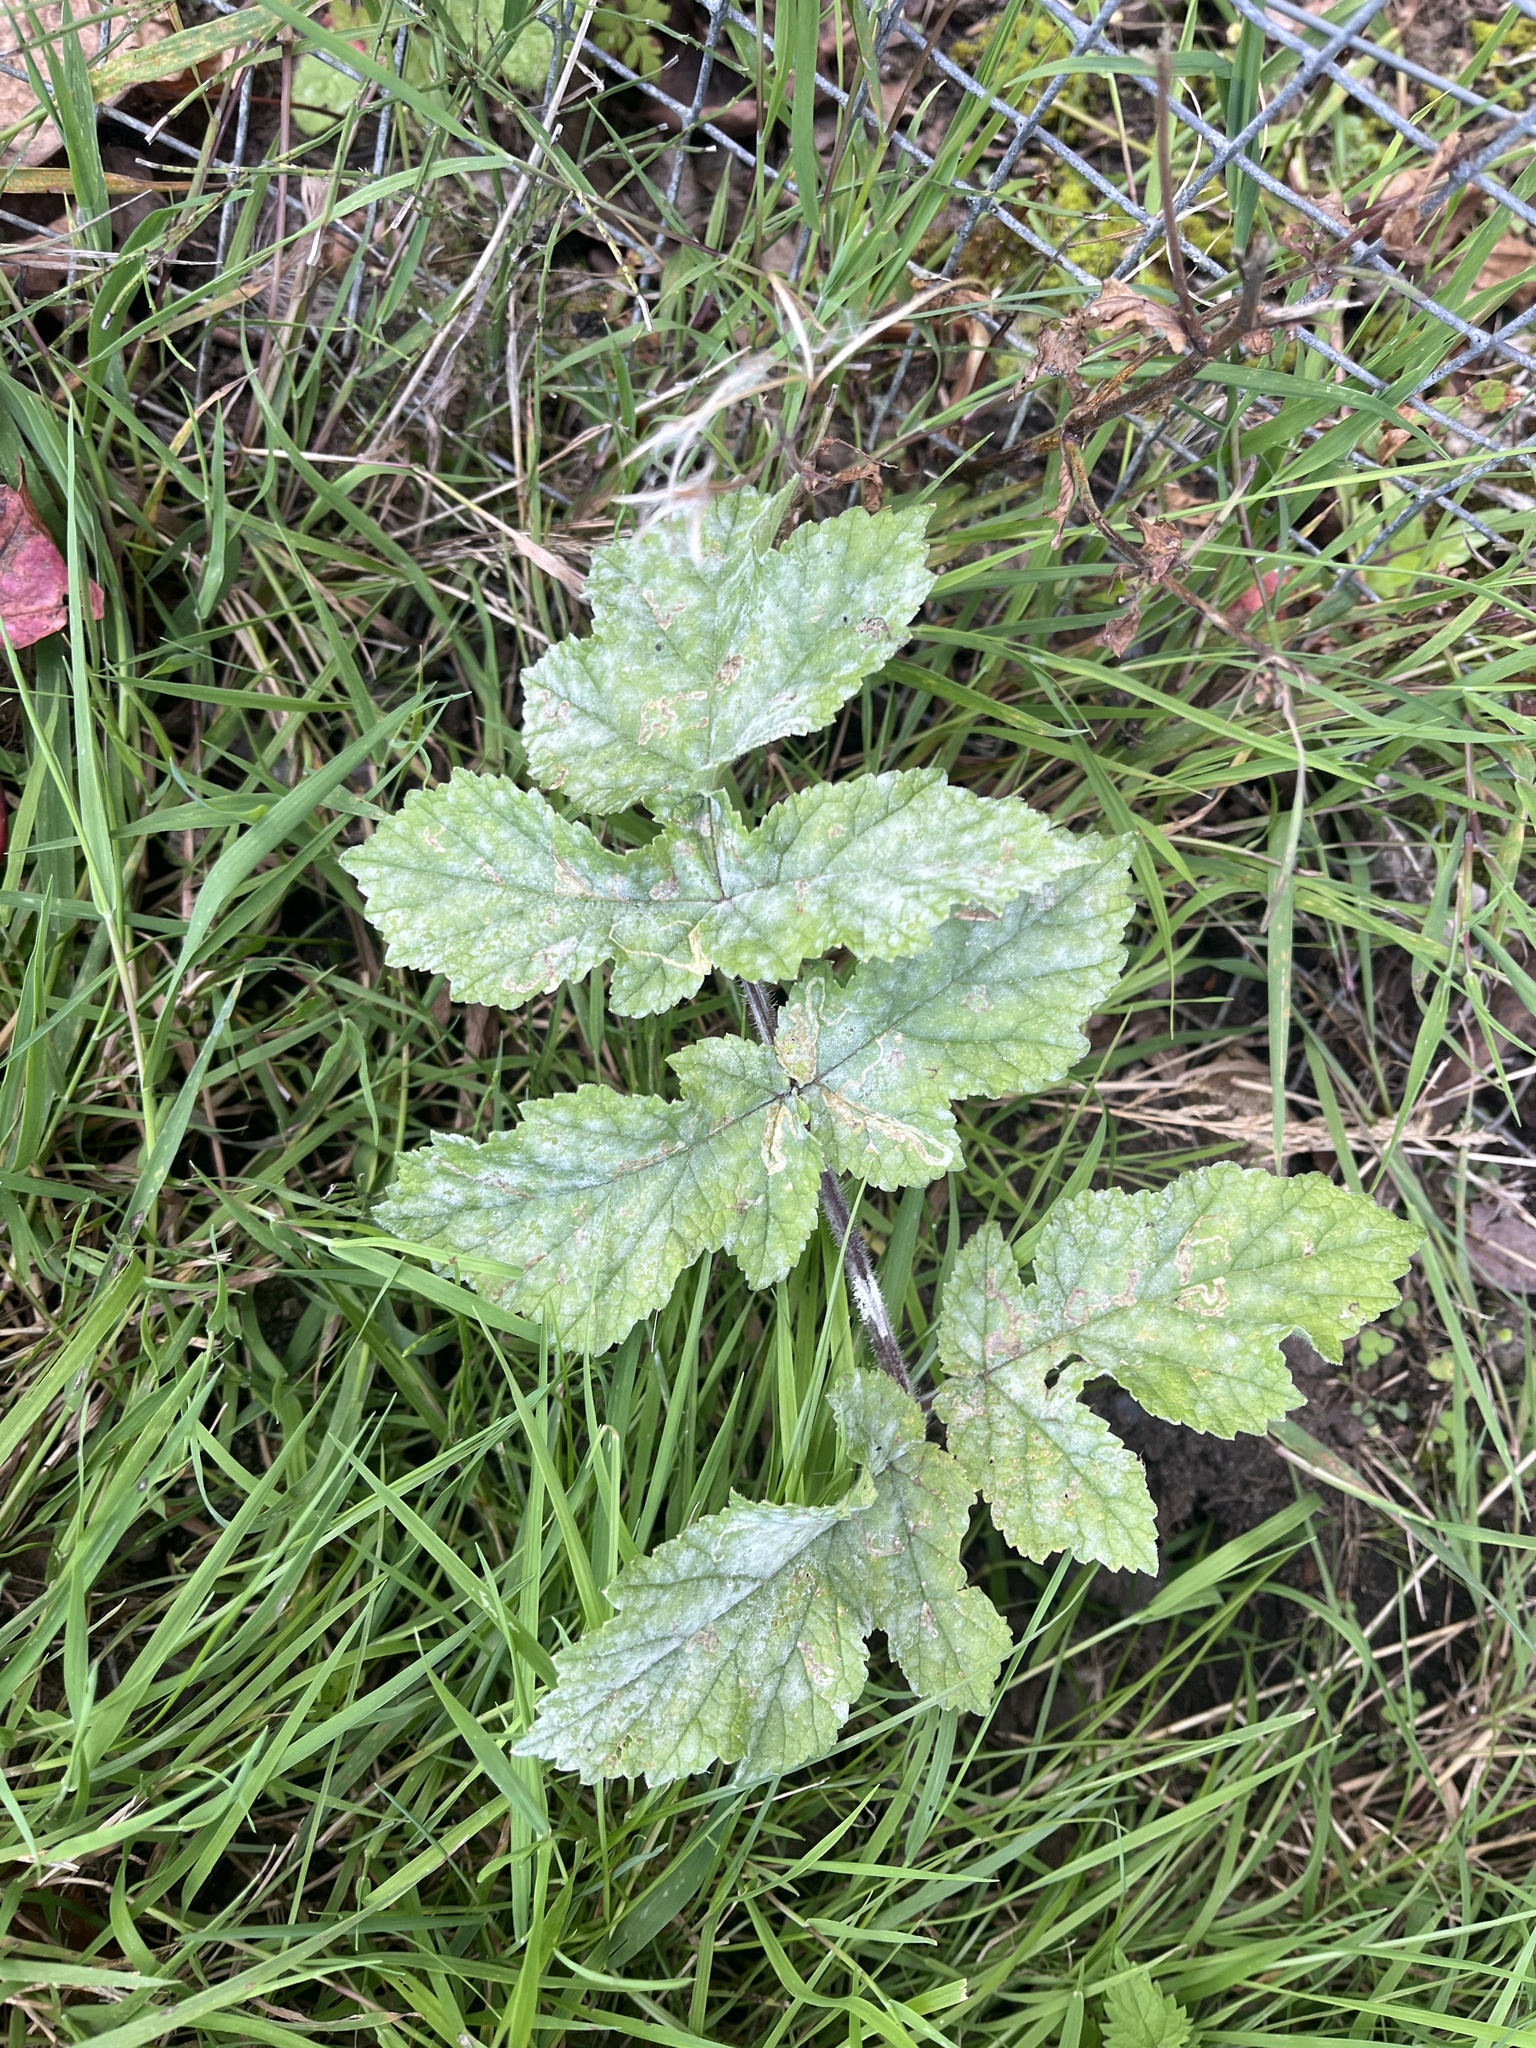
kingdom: Fungi
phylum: Ascomycota
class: Leotiomycetes
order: Helotiales
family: Erysiphaceae
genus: Erysiphe
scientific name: Erysiphe heraclei
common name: Umbellifer mildew
